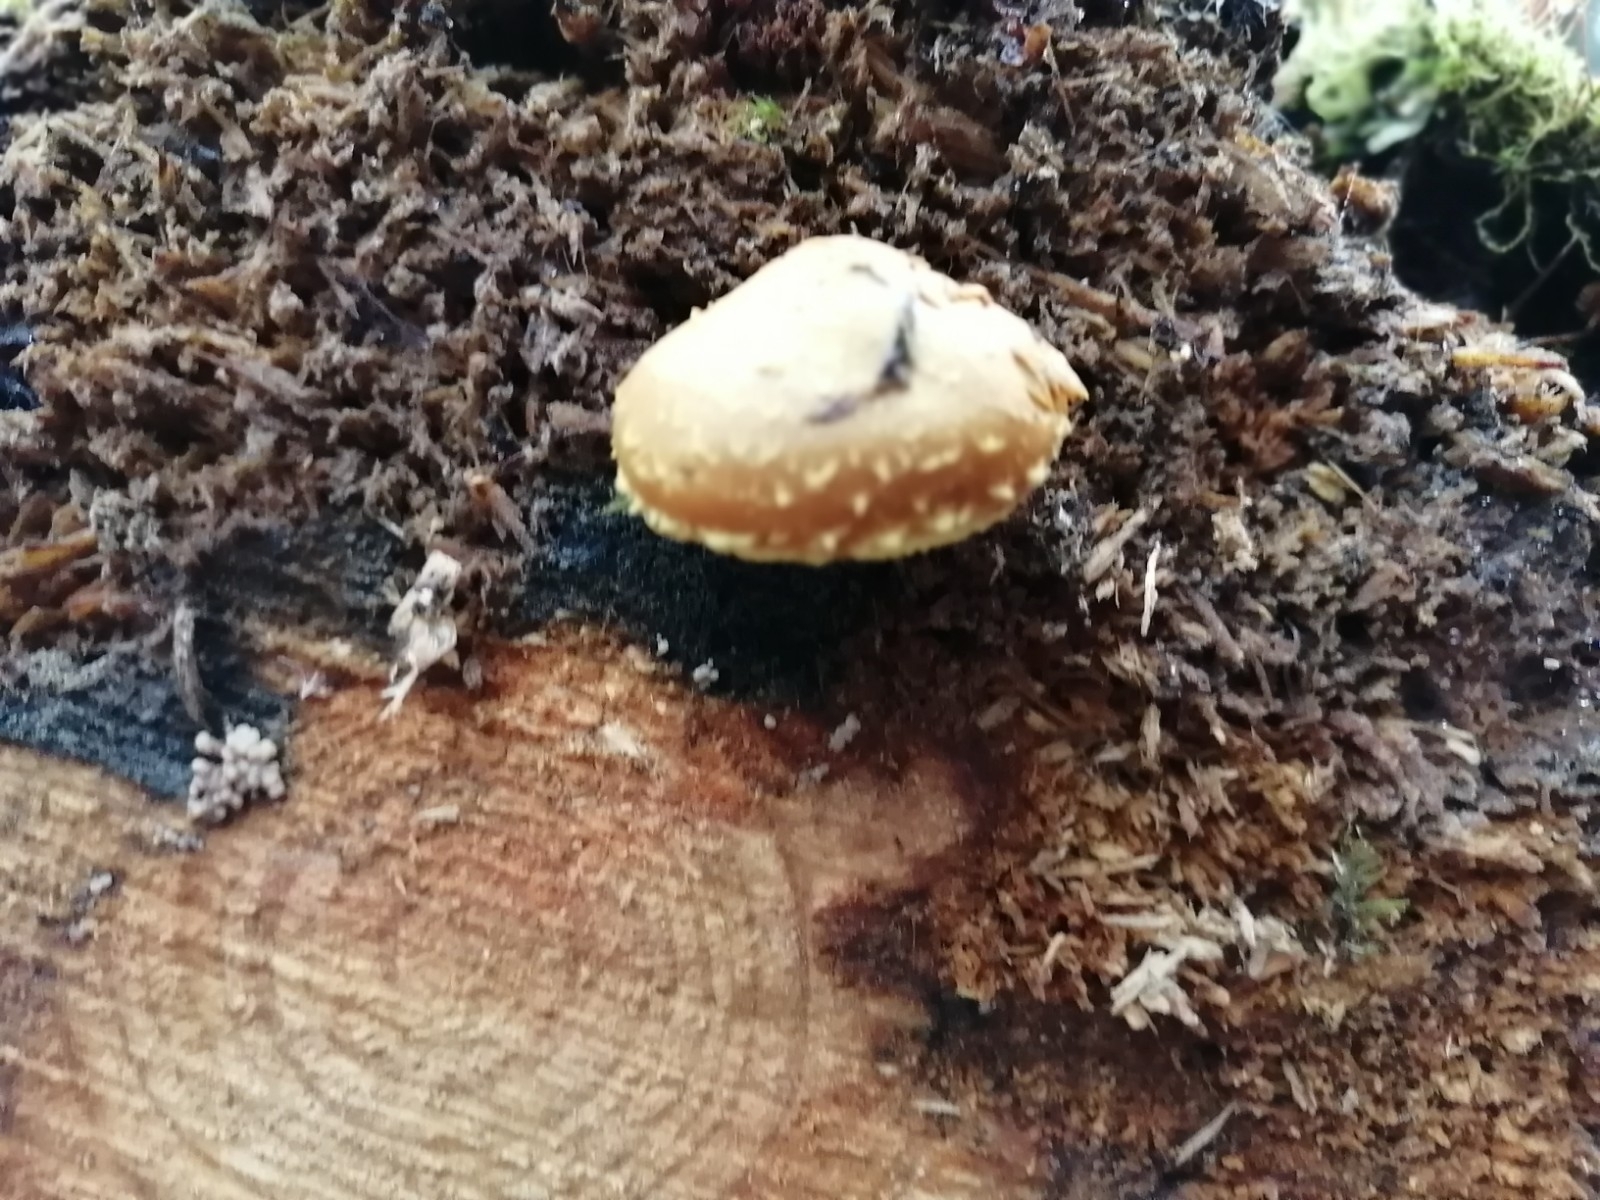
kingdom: Fungi
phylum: Basidiomycota
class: Agaricomycetes
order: Agaricales
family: Strophariaceae
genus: Pholiota
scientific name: Pholiota flammans
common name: Flaming scalycap
